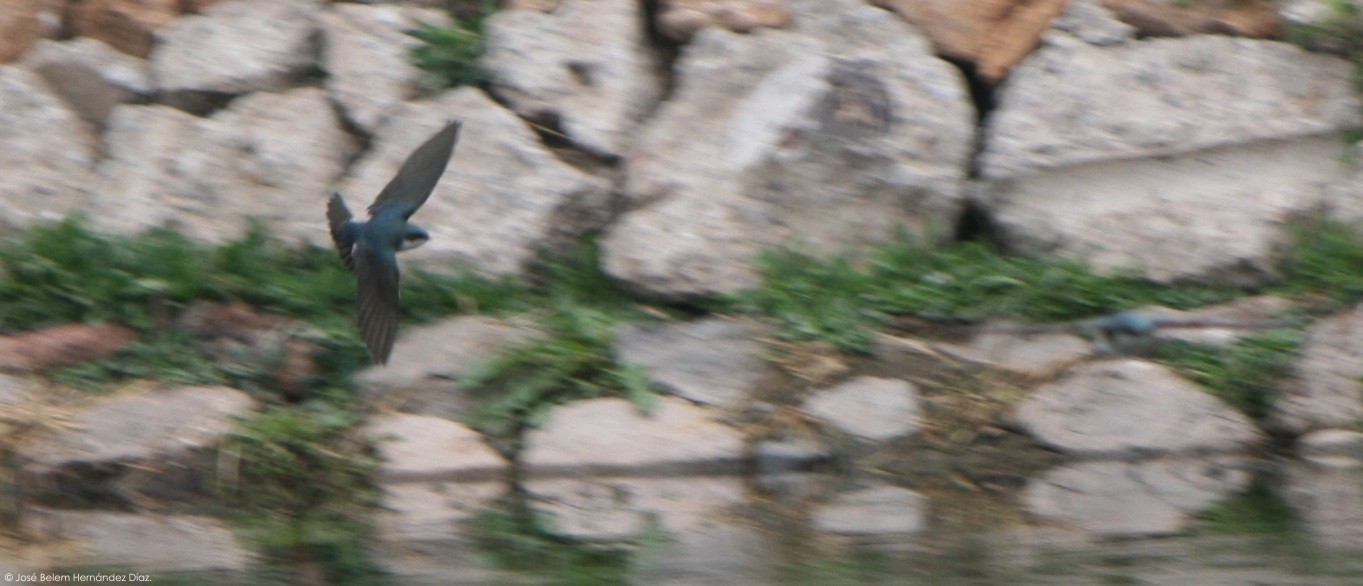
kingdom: Animalia
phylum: Chordata
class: Aves
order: Passeriformes
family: Hirundinidae
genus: Tachycineta
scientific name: Tachycineta bicolor
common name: Tree swallow
